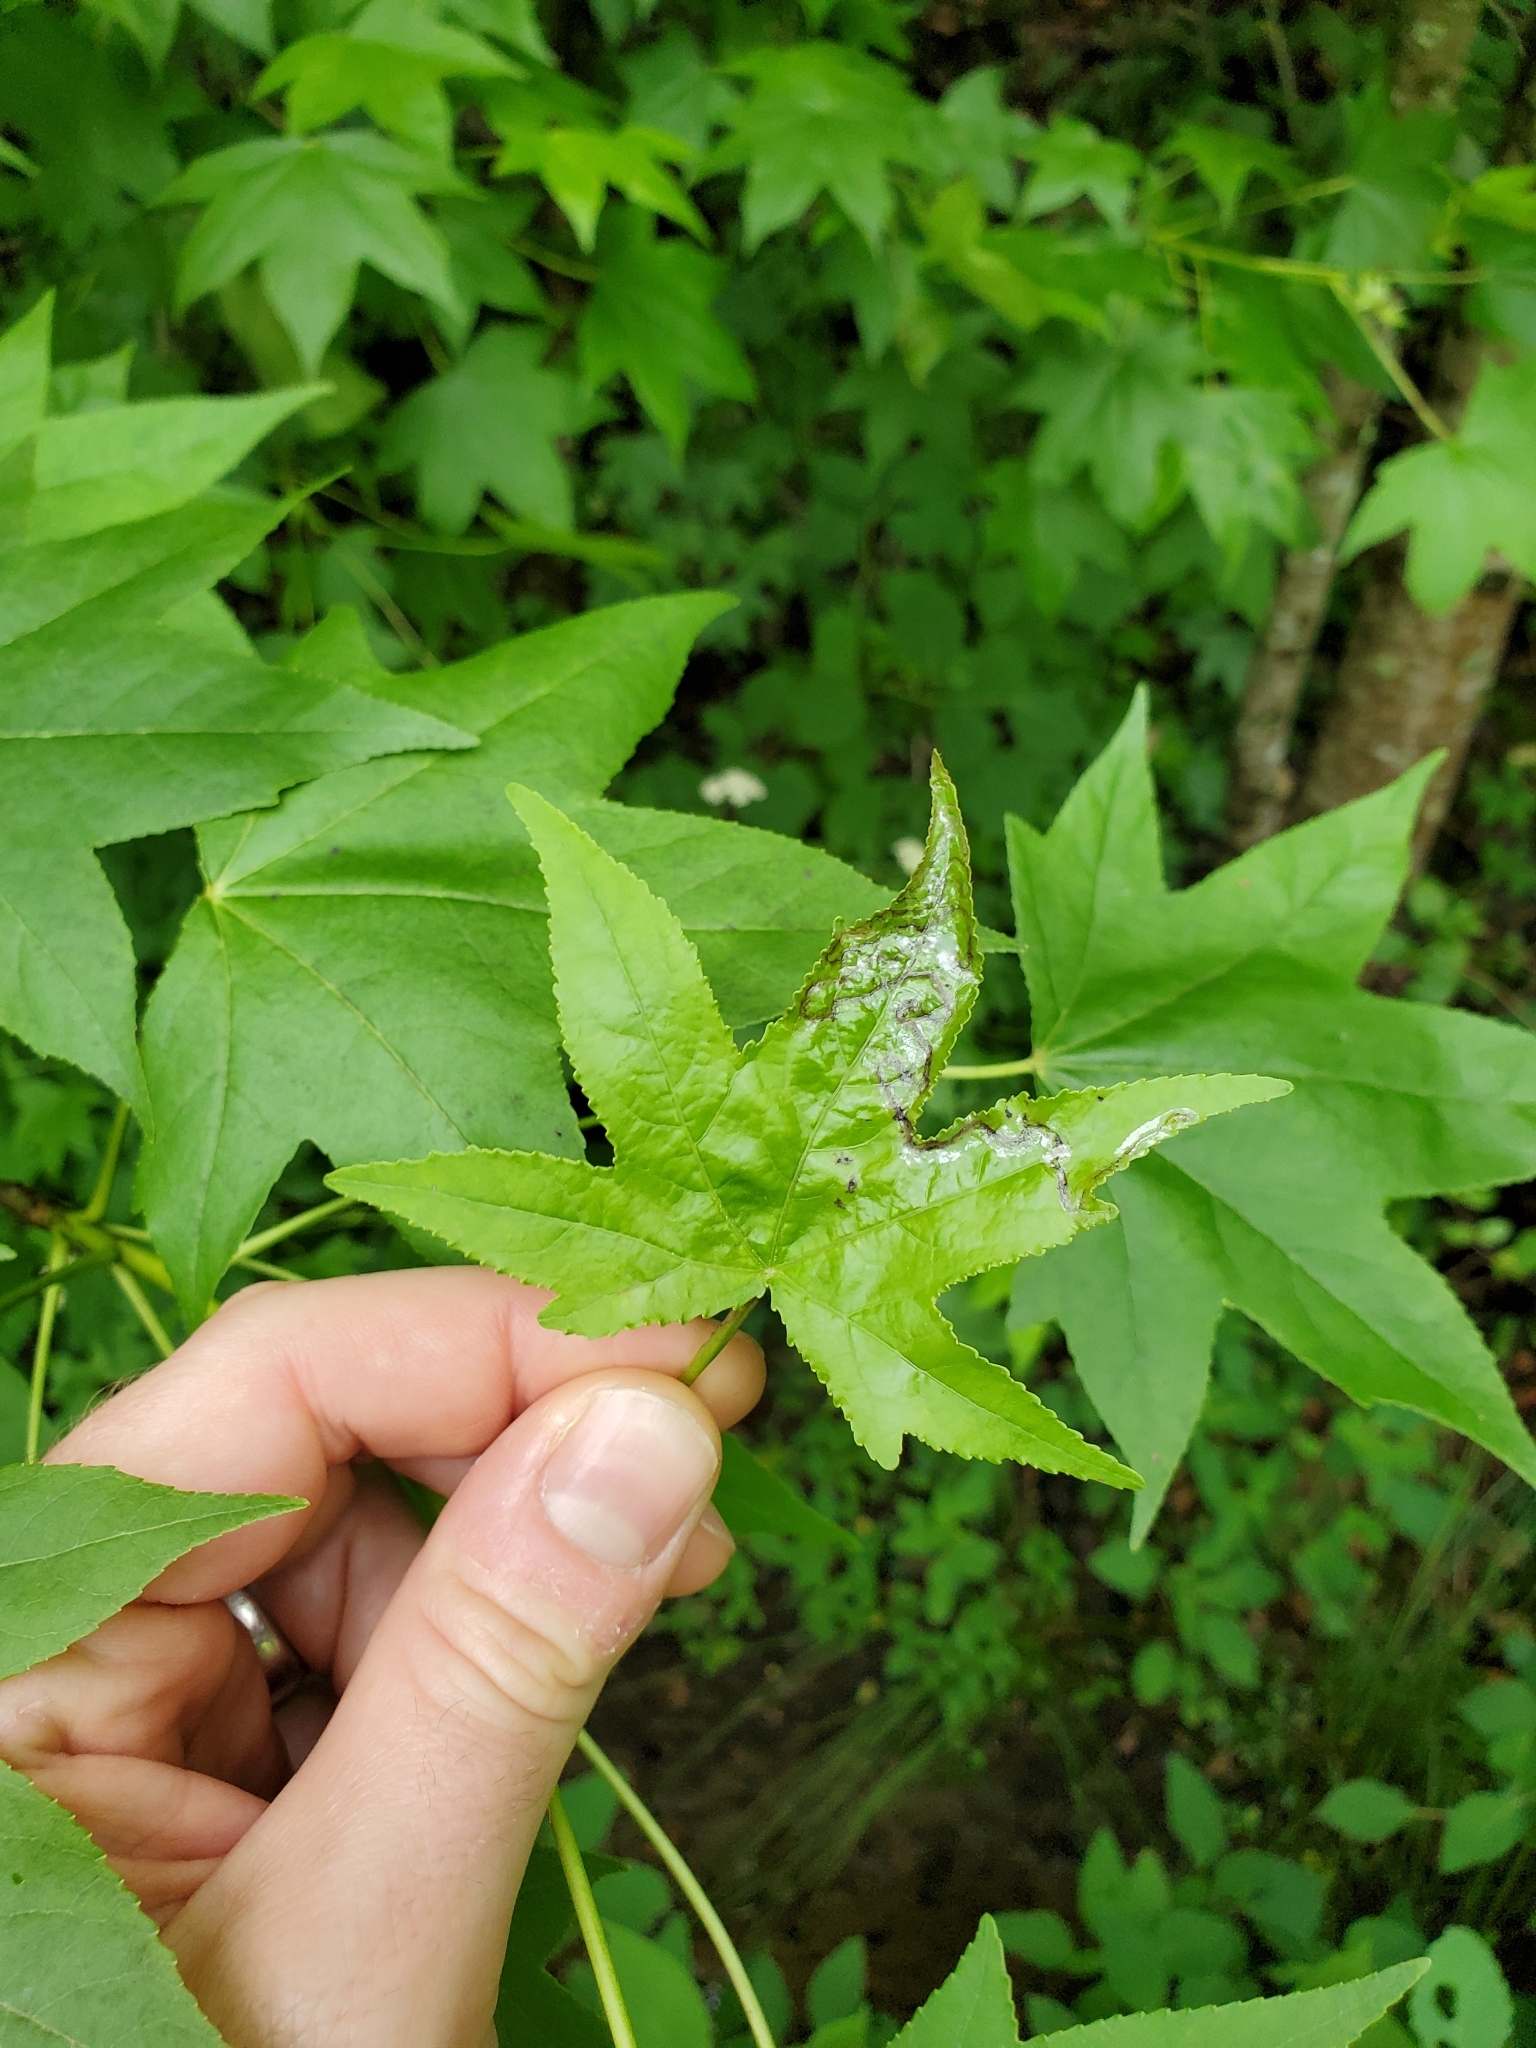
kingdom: Plantae
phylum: Tracheophyta
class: Magnoliopsida
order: Saxifragales
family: Altingiaceae
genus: Liquidambar
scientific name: Liquidambar styraciflua
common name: Sweet gum
